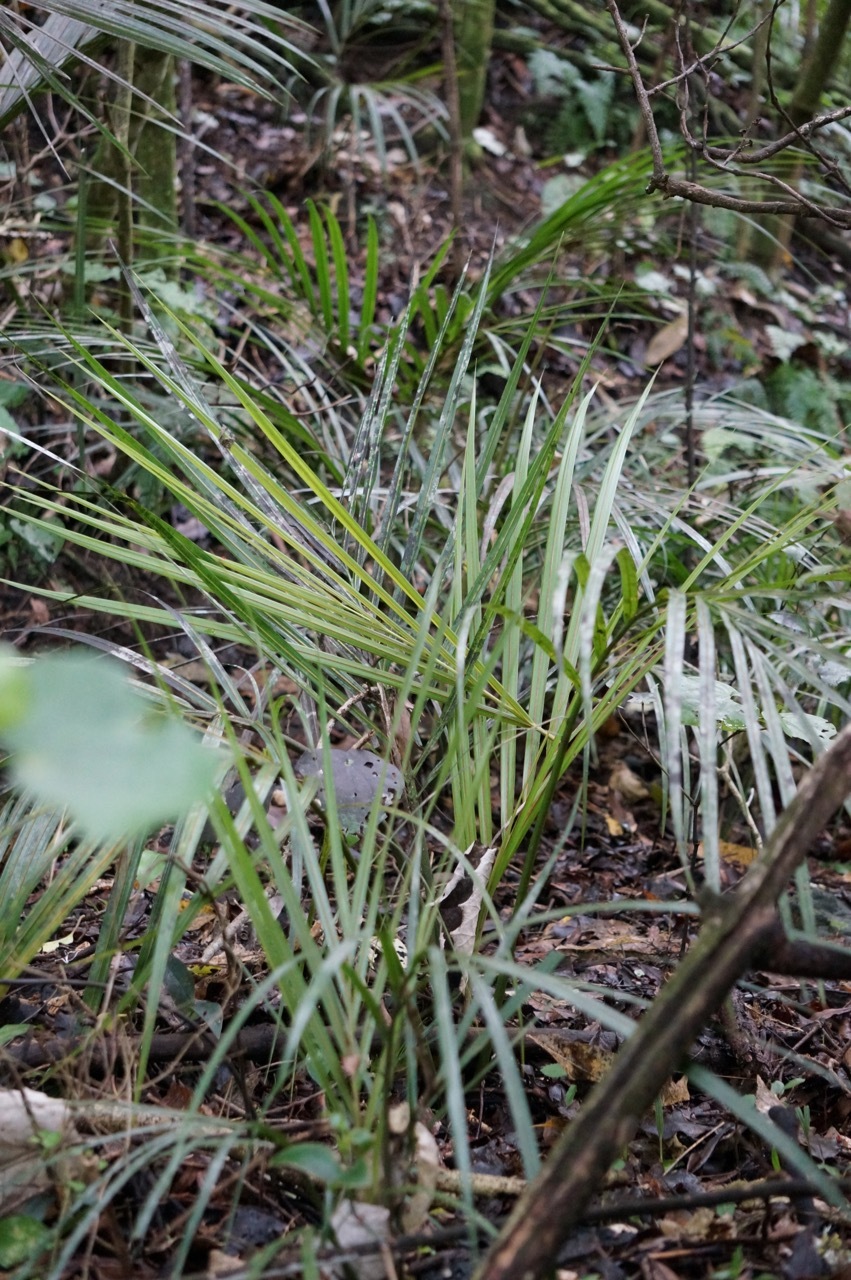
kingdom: Plantae
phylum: Tracheophyta
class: Liliopsida
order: Arecales
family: Arecaceae
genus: Rhopalostylis
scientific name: Rhopalostylis sapida
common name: Feather-duster palm
